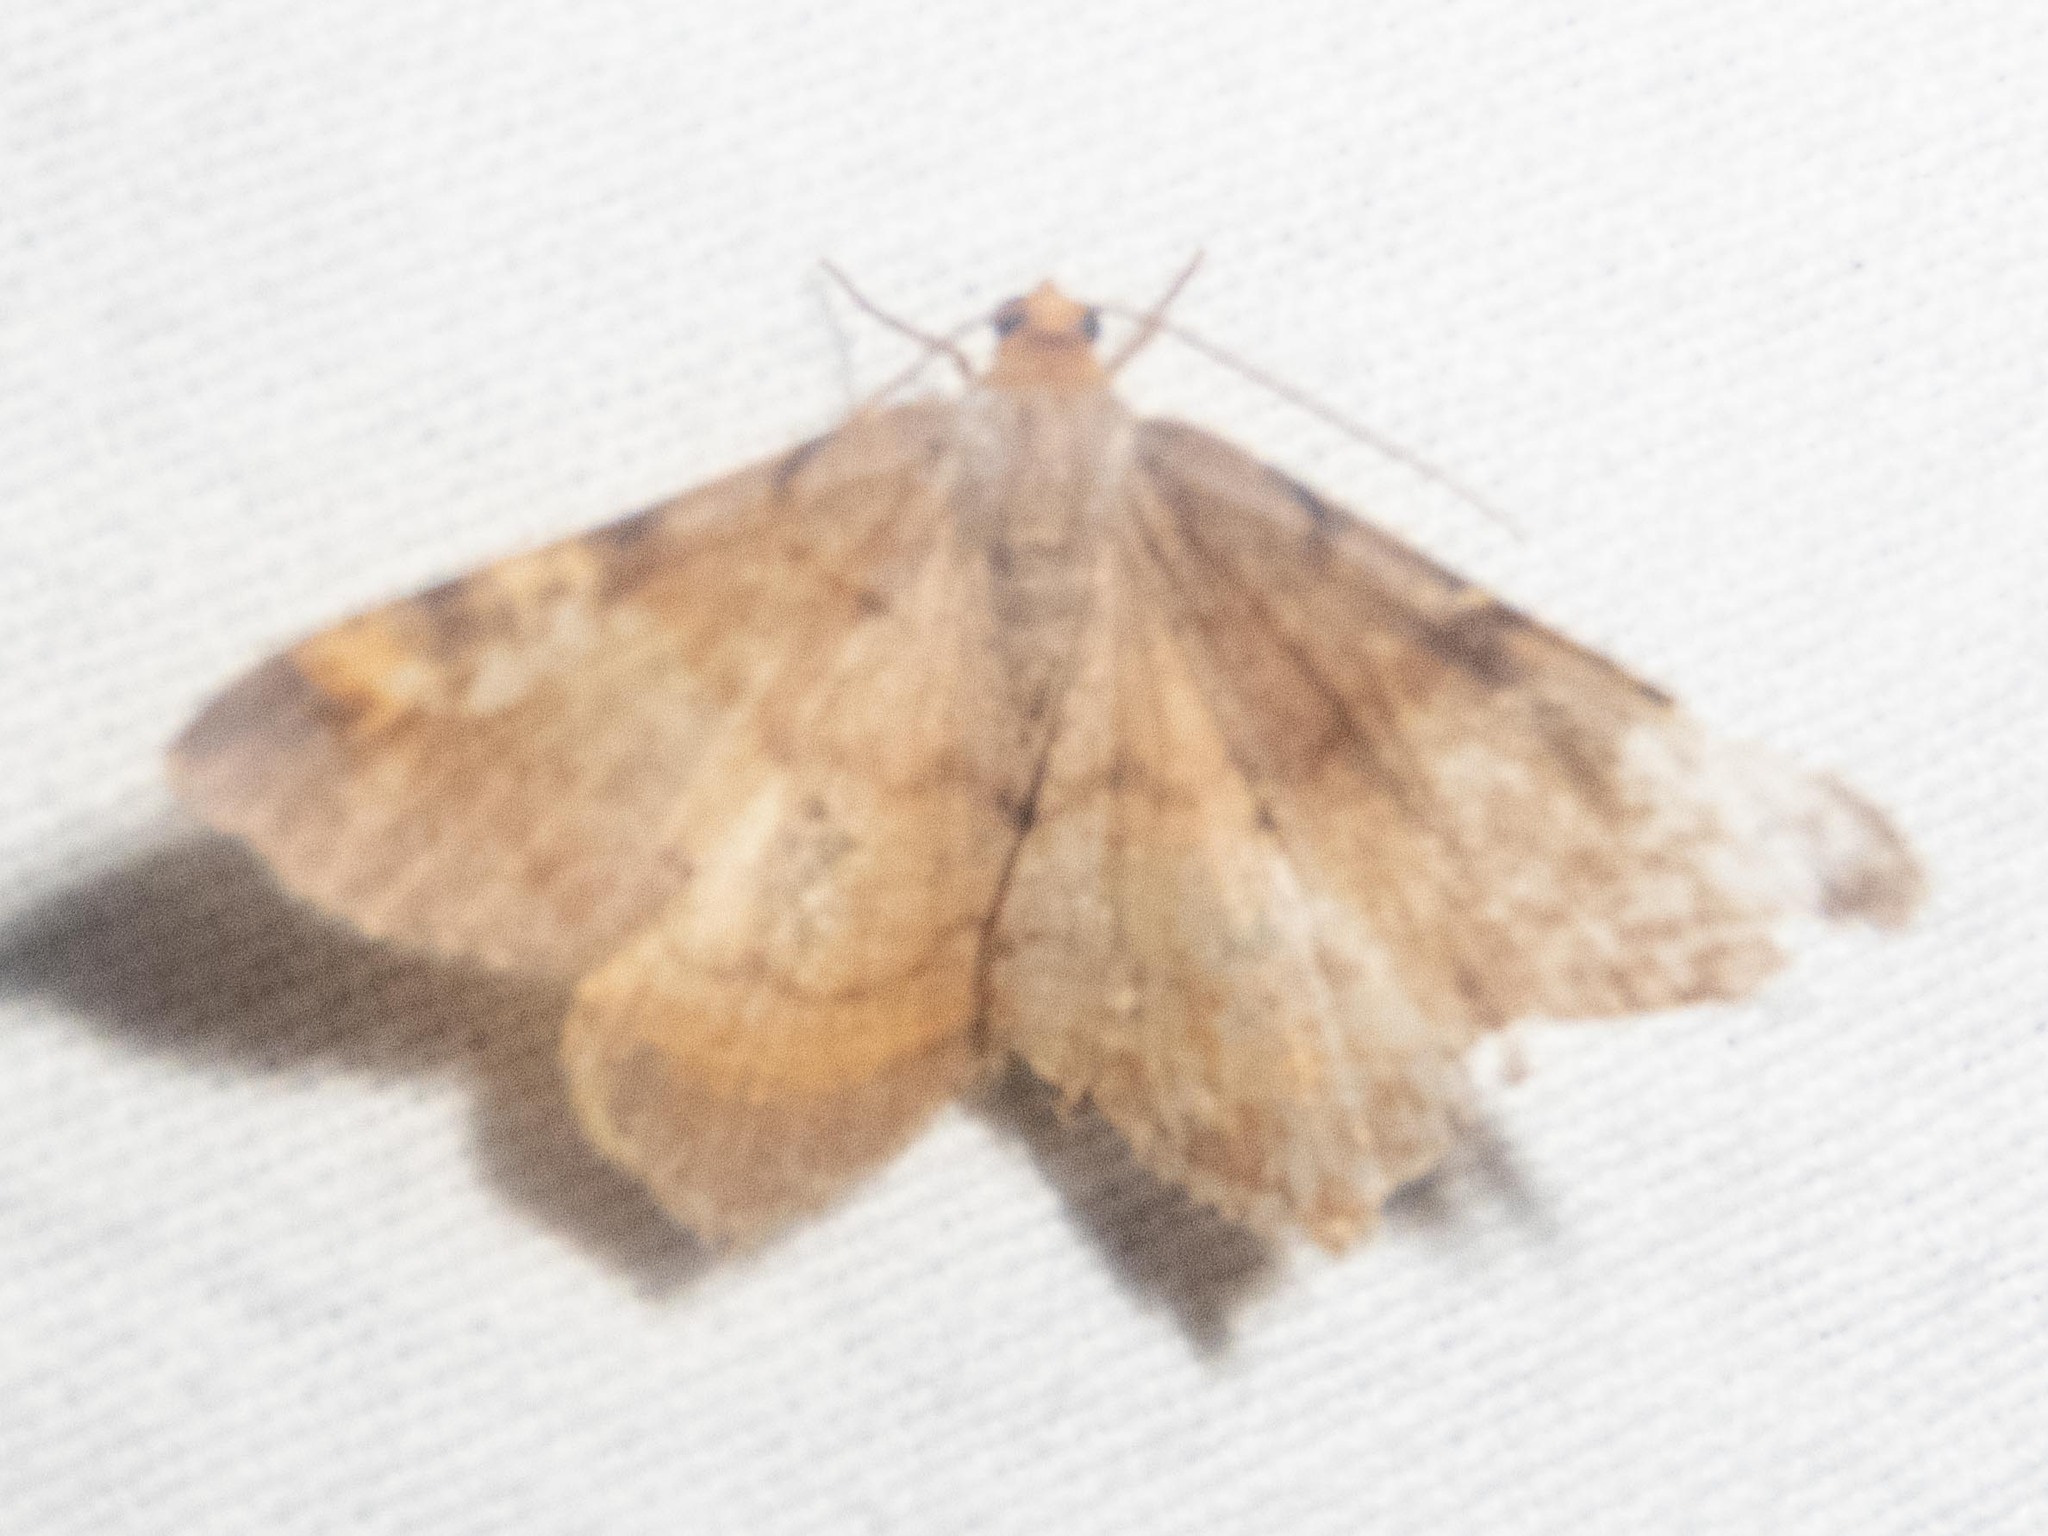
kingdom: Animalia
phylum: Arthropoda
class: Insecta
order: Lepidoptera
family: Geometridae
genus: Macaria
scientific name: Macaria liturata
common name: Tawny-barred angle
